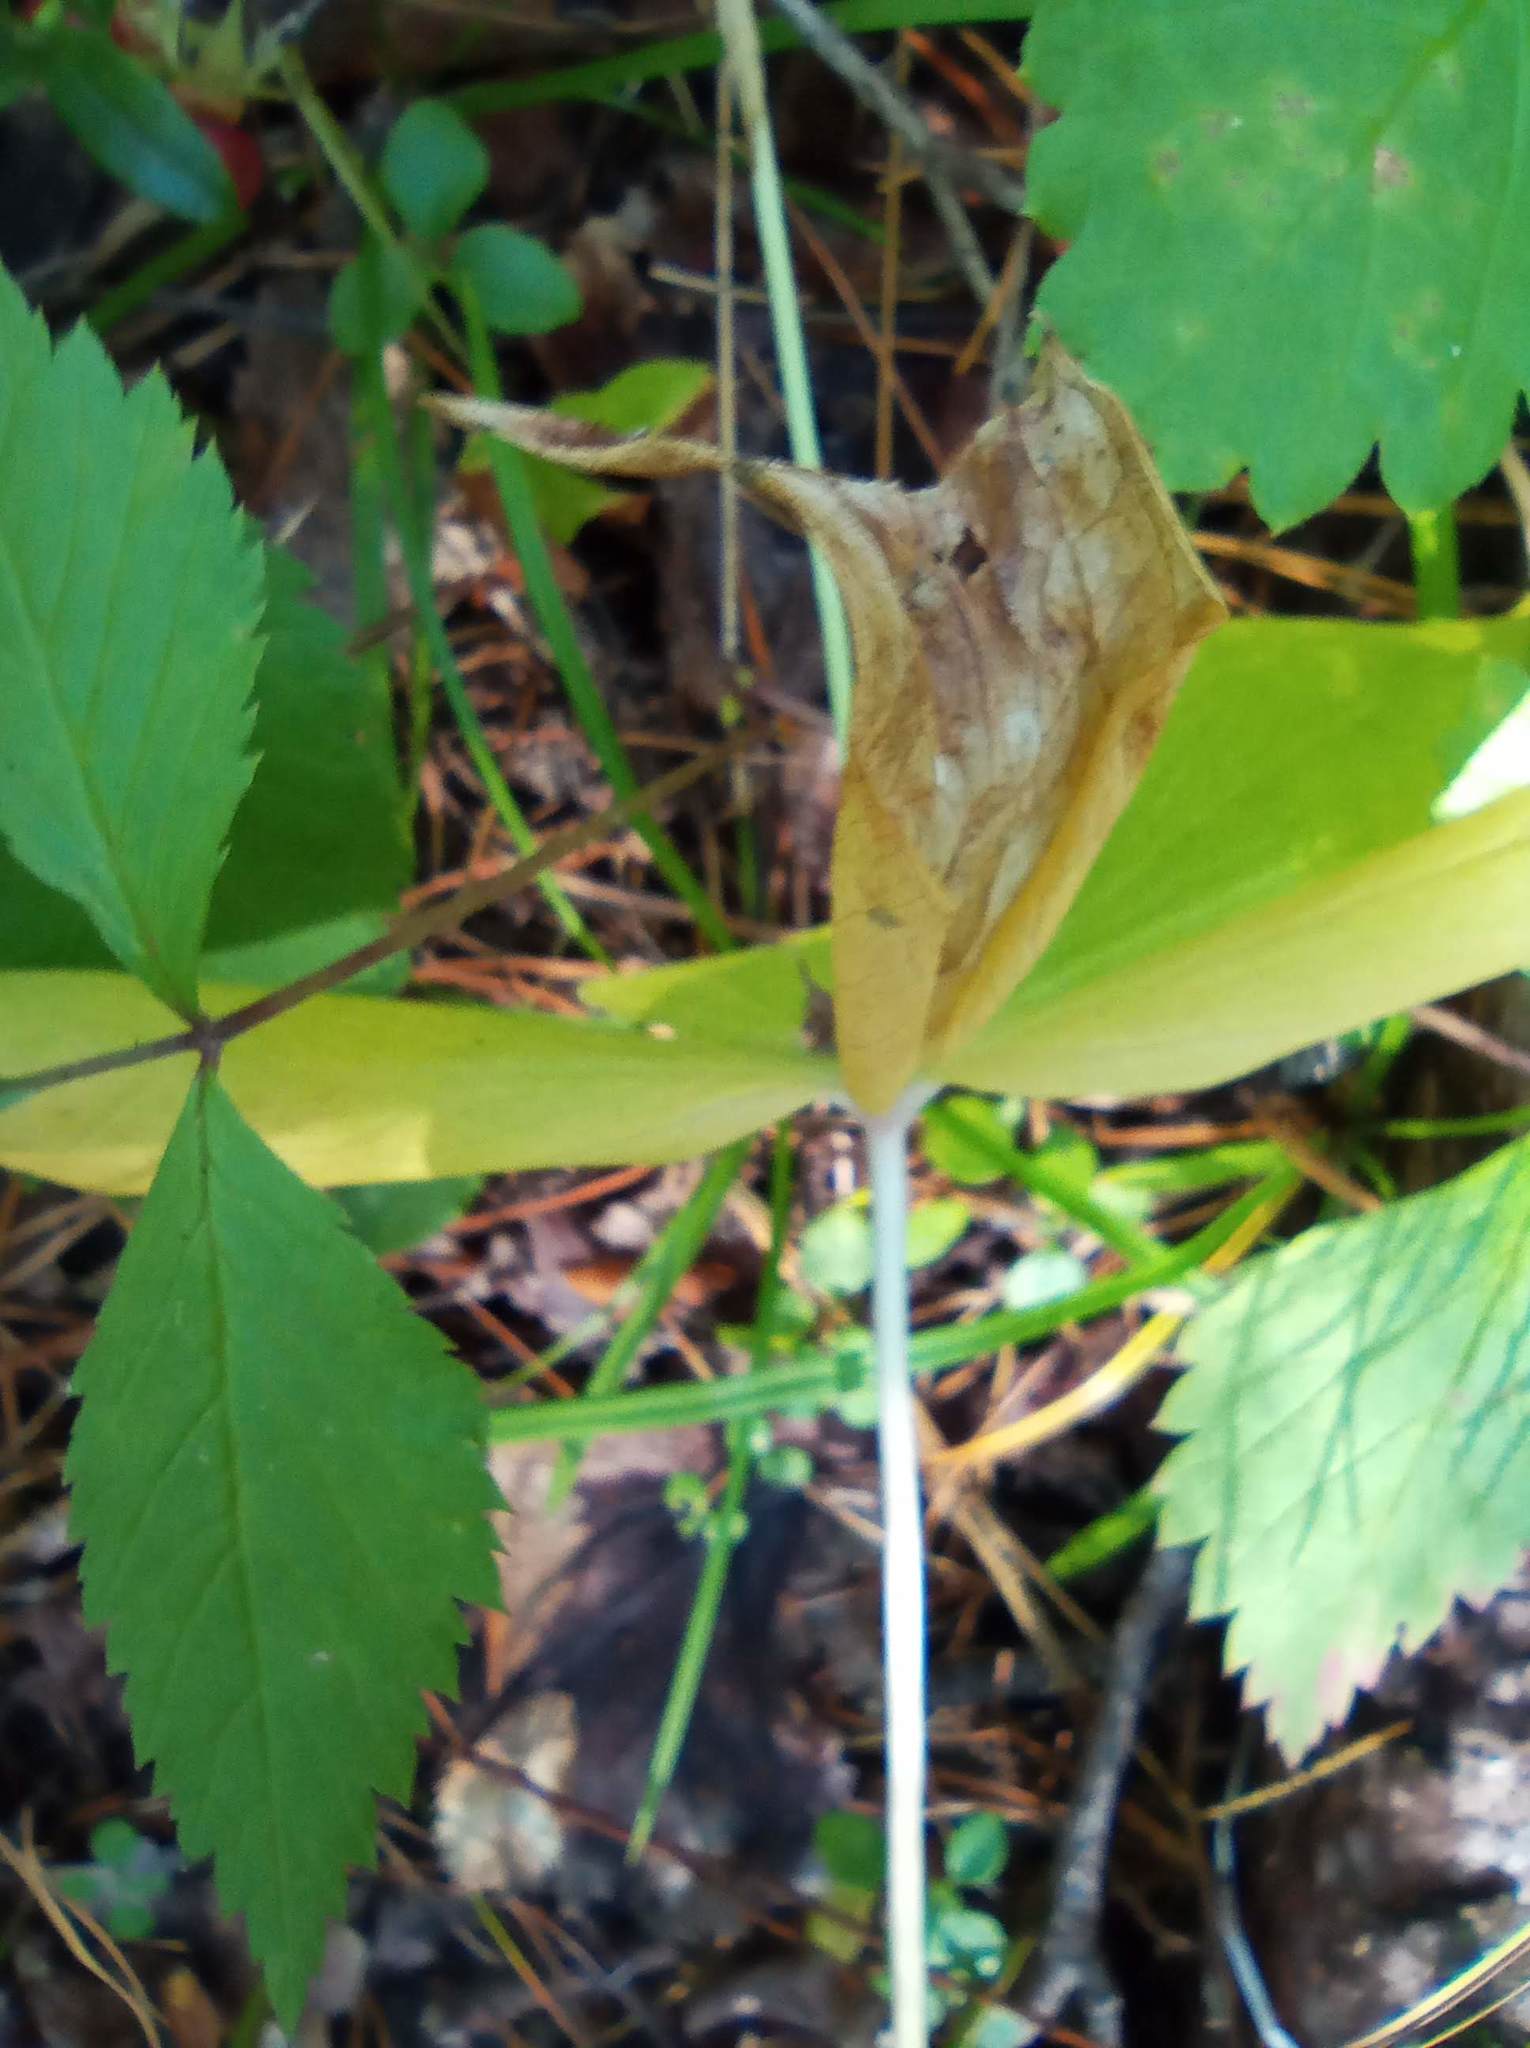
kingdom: Plantae
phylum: Tracheophyta
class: Liliopsida
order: Liliales
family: Melanthiaceae
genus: Paris
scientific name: Paris quadrifolia
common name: Herb-paris
